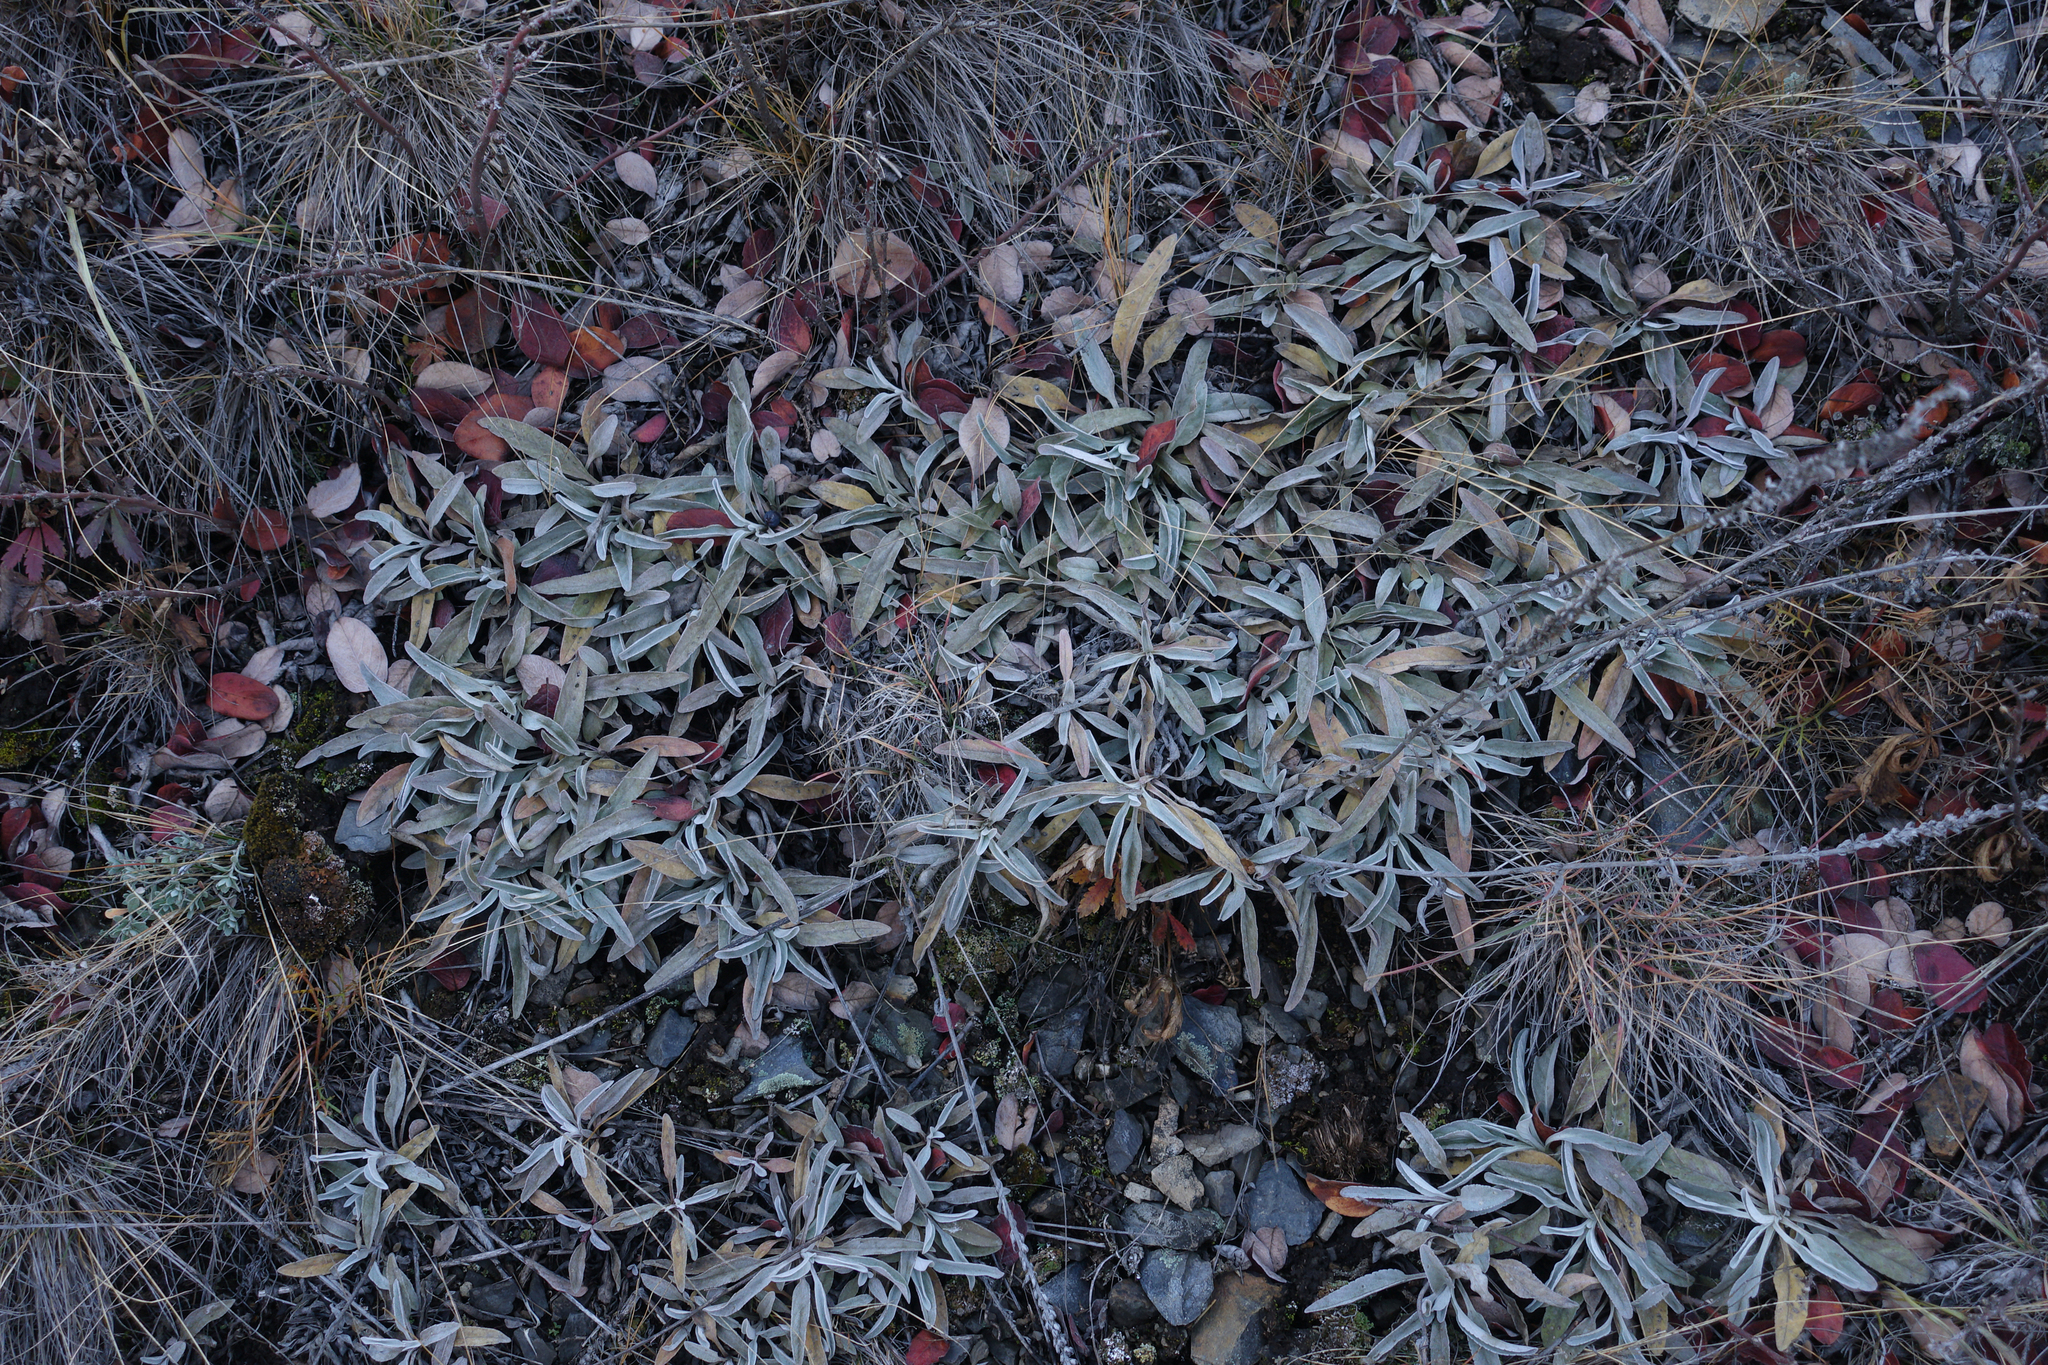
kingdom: Plantae
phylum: Tracheophyta
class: Magnoliopsida
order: Lamiales
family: Plantaginaceae
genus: Veronica
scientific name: Veronica incana
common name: Silver speedwell
